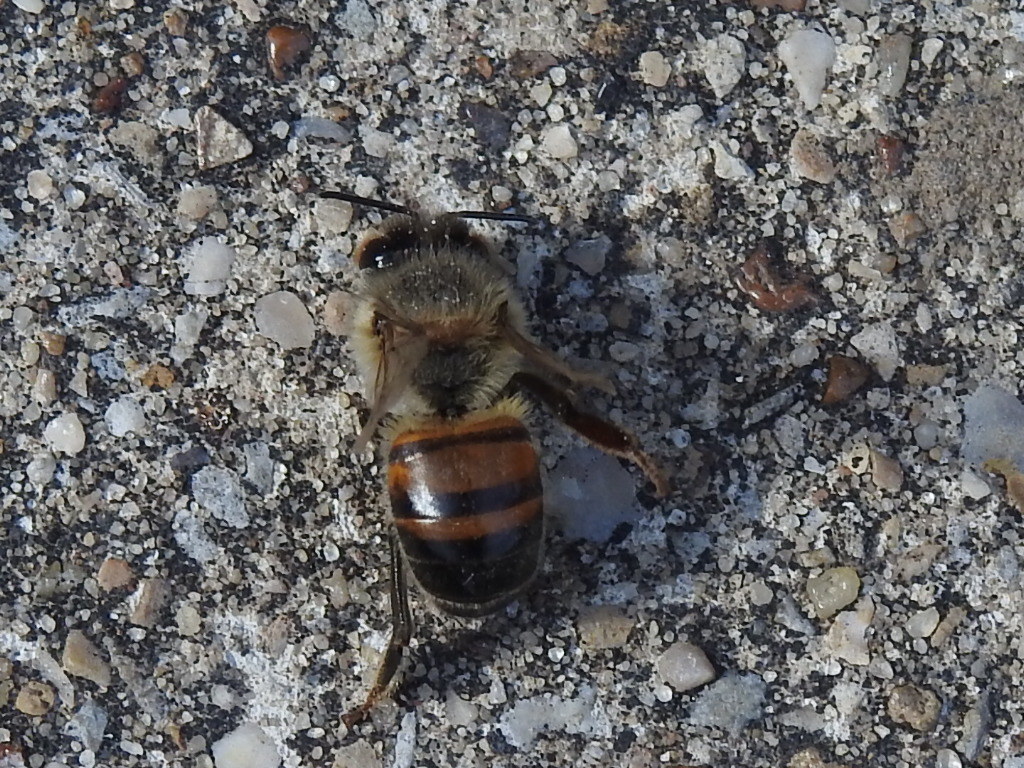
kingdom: Animalia
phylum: Arthropoda
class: Insecta
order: Hymenoptera
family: Apidae
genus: Apis
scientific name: Apis mellifera
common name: Honey bee
